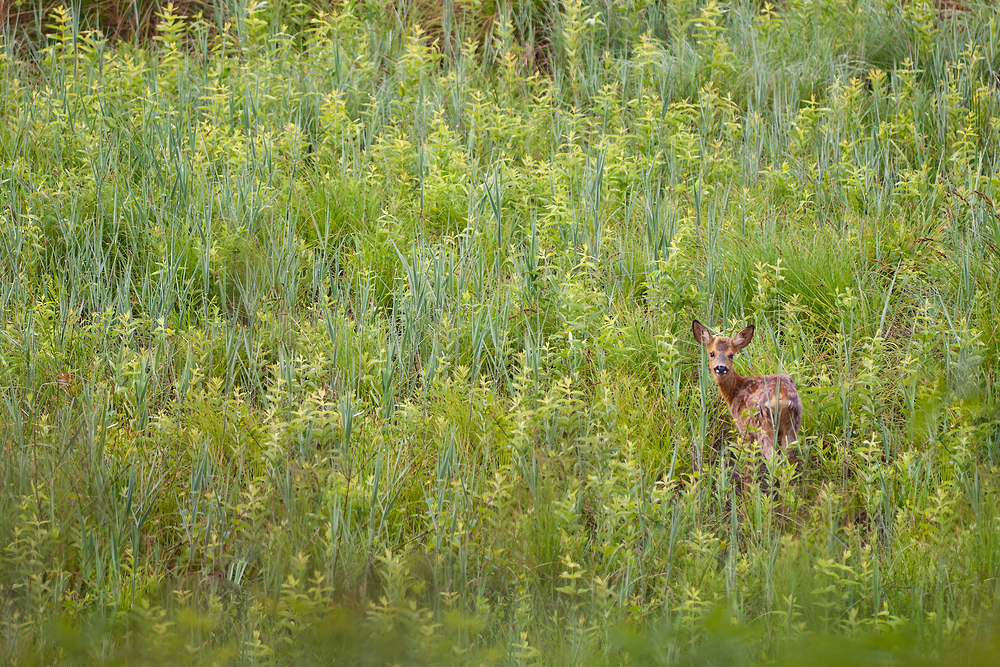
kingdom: Animalia
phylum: Chordata
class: Mammalia
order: Artiodactyla
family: Cervidae
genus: Capreolus
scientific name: Capreolus capreolus
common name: Western roe deer
